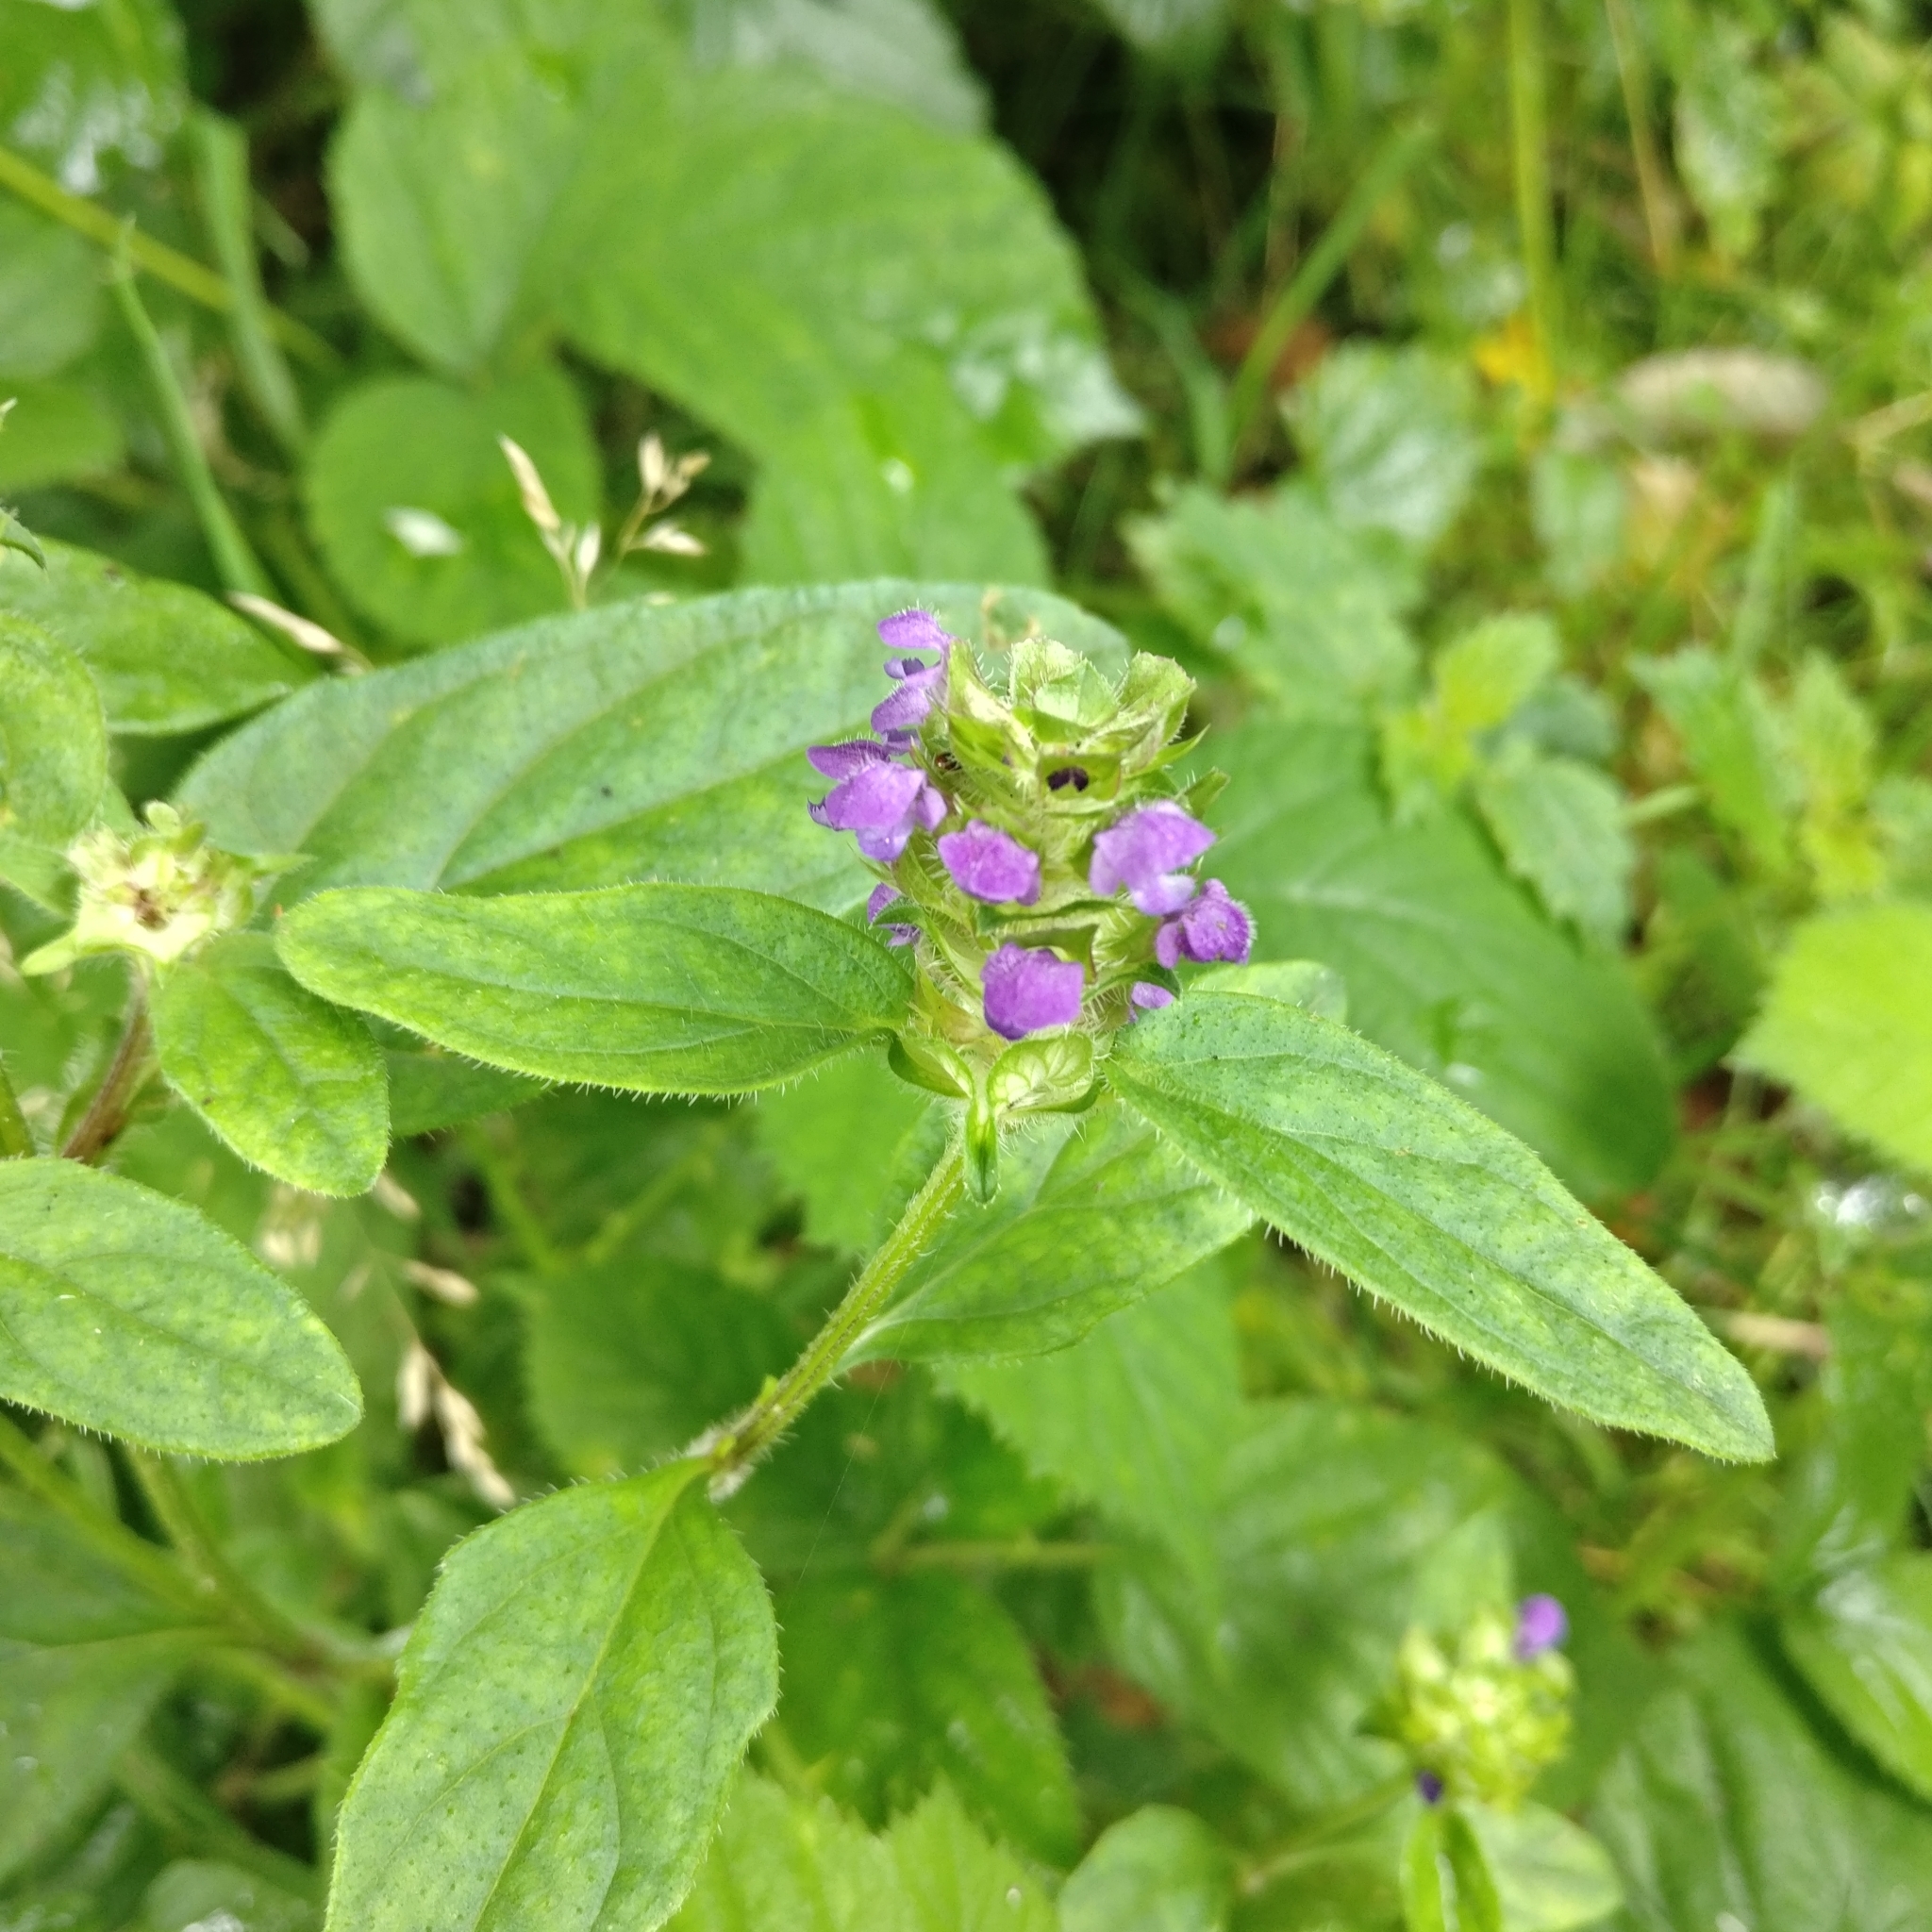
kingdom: Plantae
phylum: Tracheophyta
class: Magnoliopsida
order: Lamiales
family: Lamiaceae
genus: Prunella
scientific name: Prunella vulgaris
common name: Heal-all
